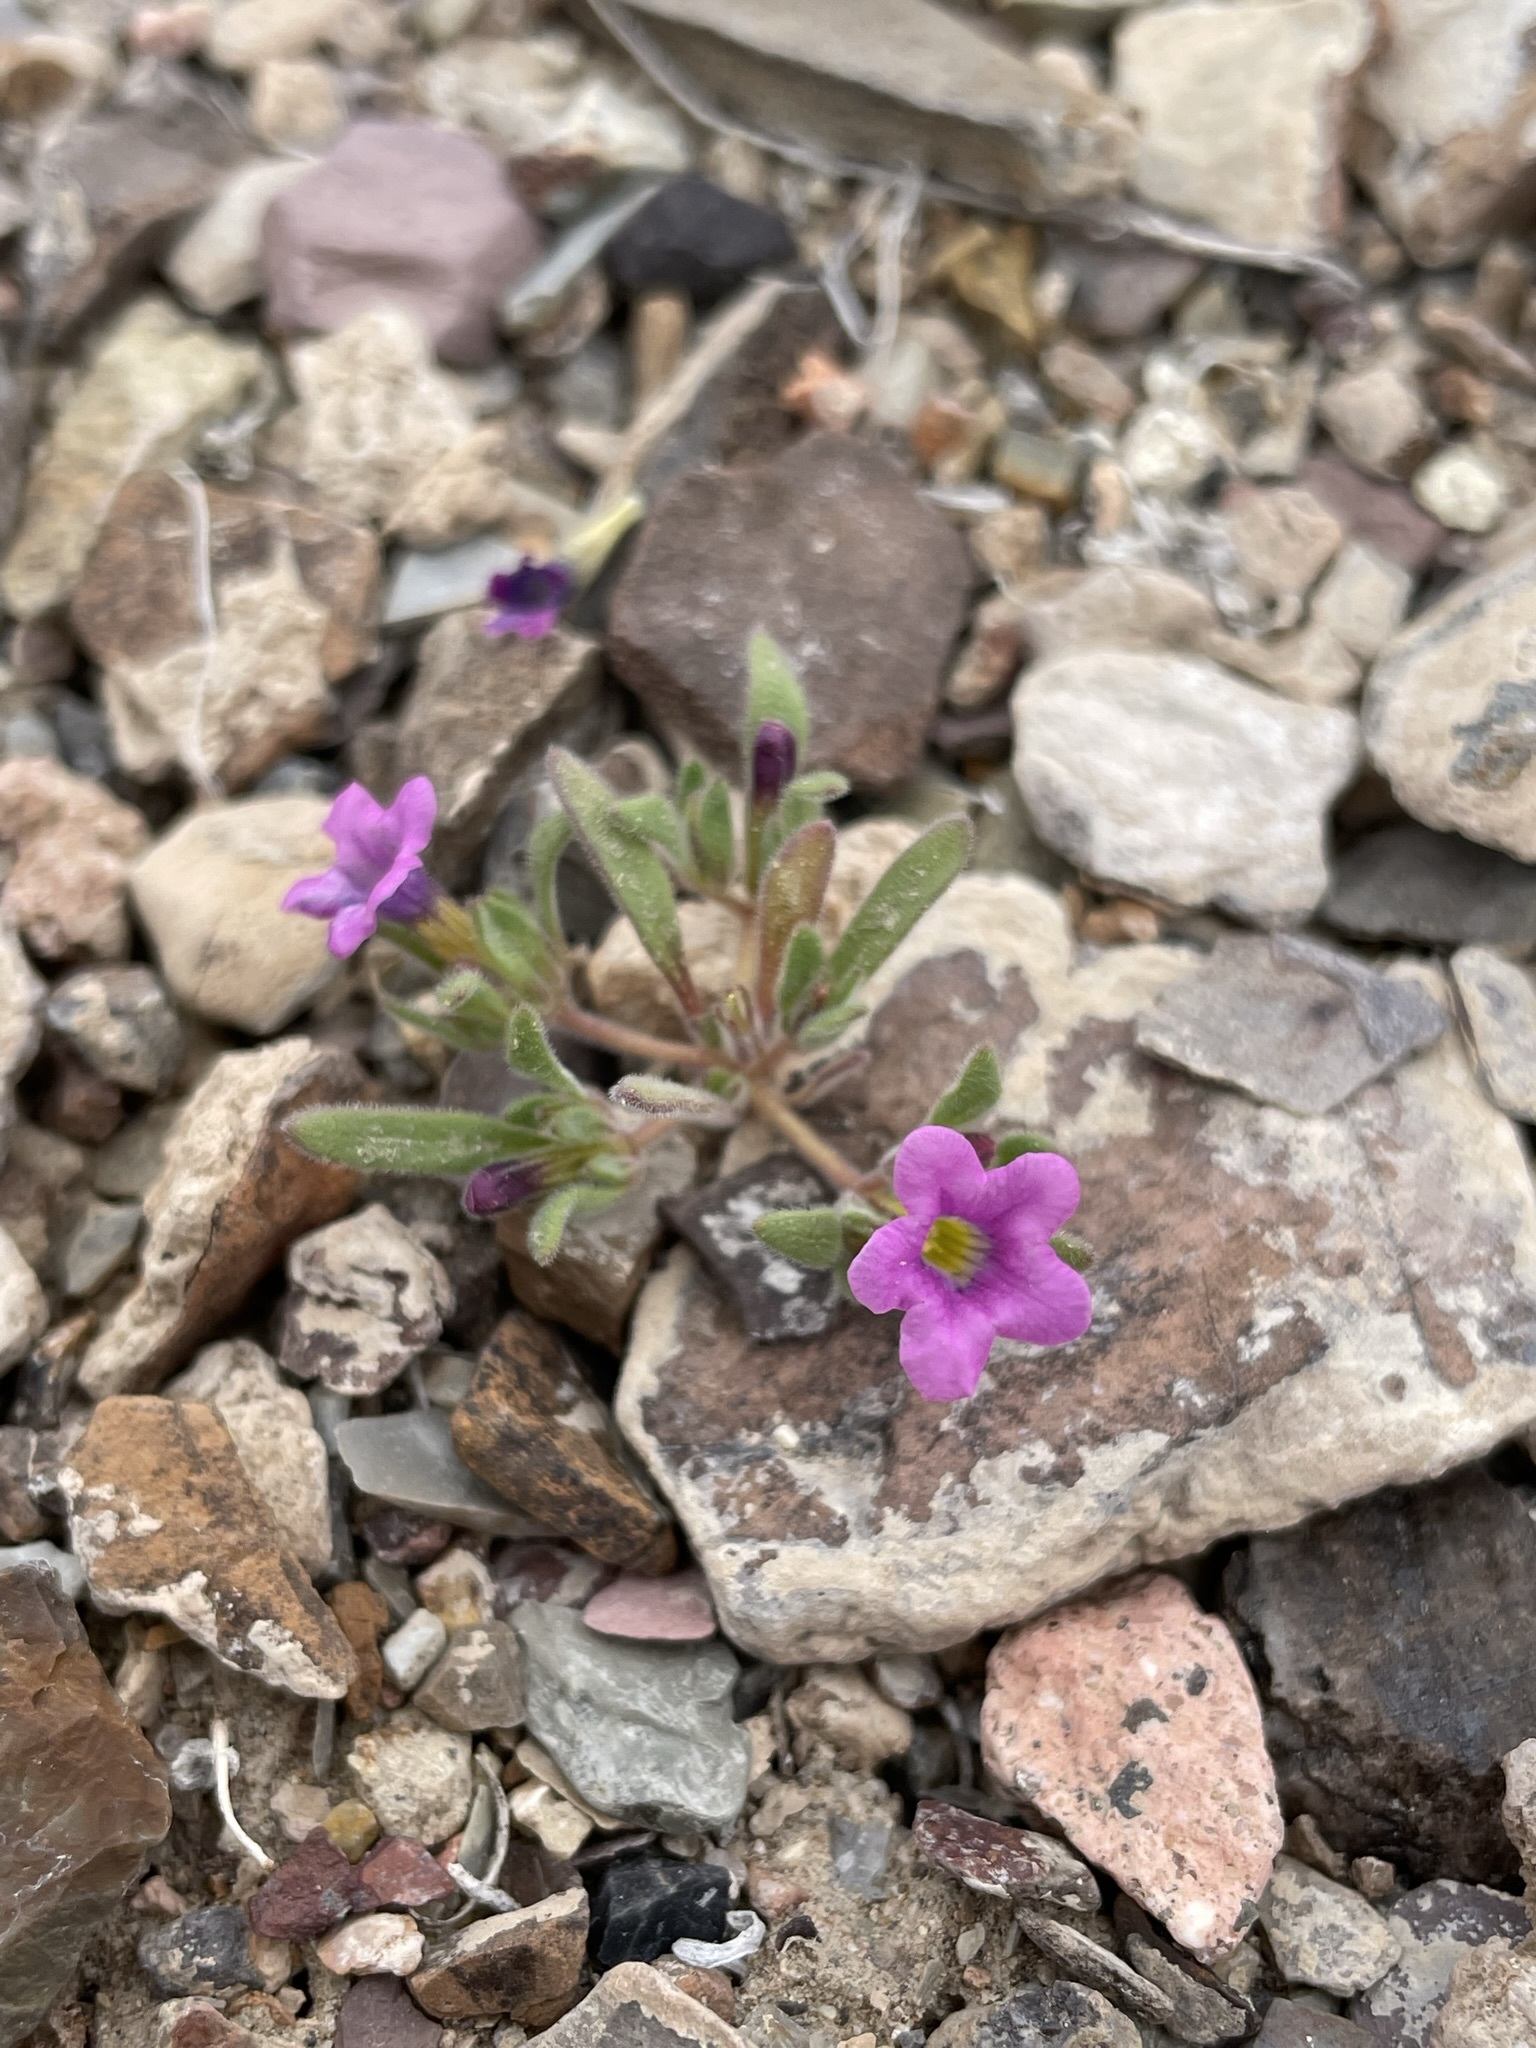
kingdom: Plantae
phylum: Tracheophyta
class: Magnoliopsida
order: Boraginales
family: Namaceae
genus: Nama
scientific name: Nama demissa
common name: Leafy nama
